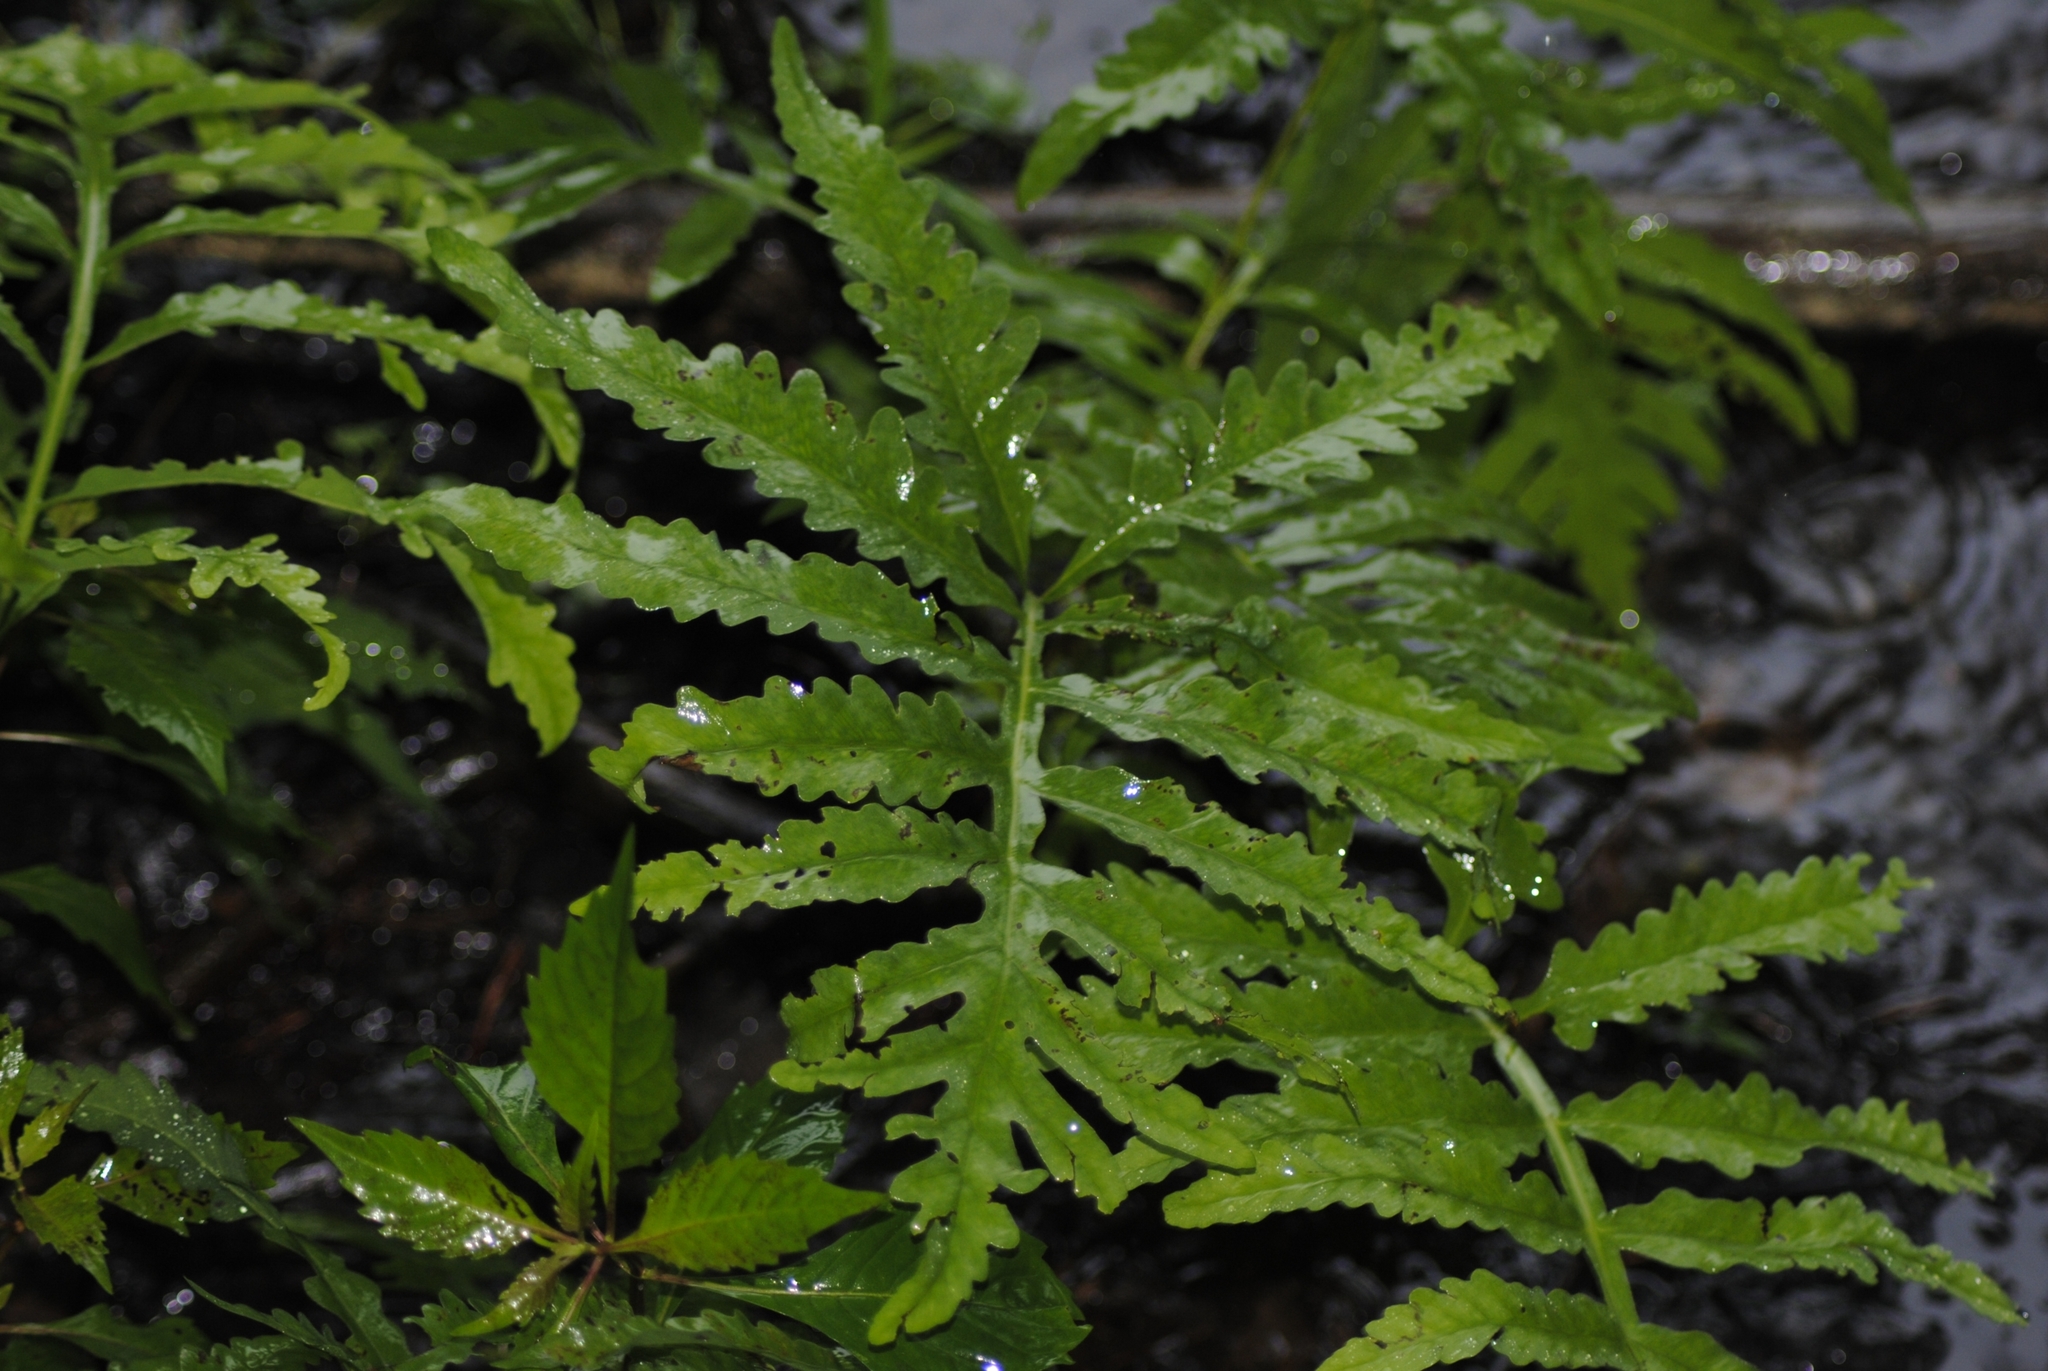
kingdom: Plantae
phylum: Tracheophyta
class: Polypodiopsida
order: Polypodiales
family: Onocleaceae
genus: Onoclea
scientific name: Onoclea sensibilis
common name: Sensitive fern
